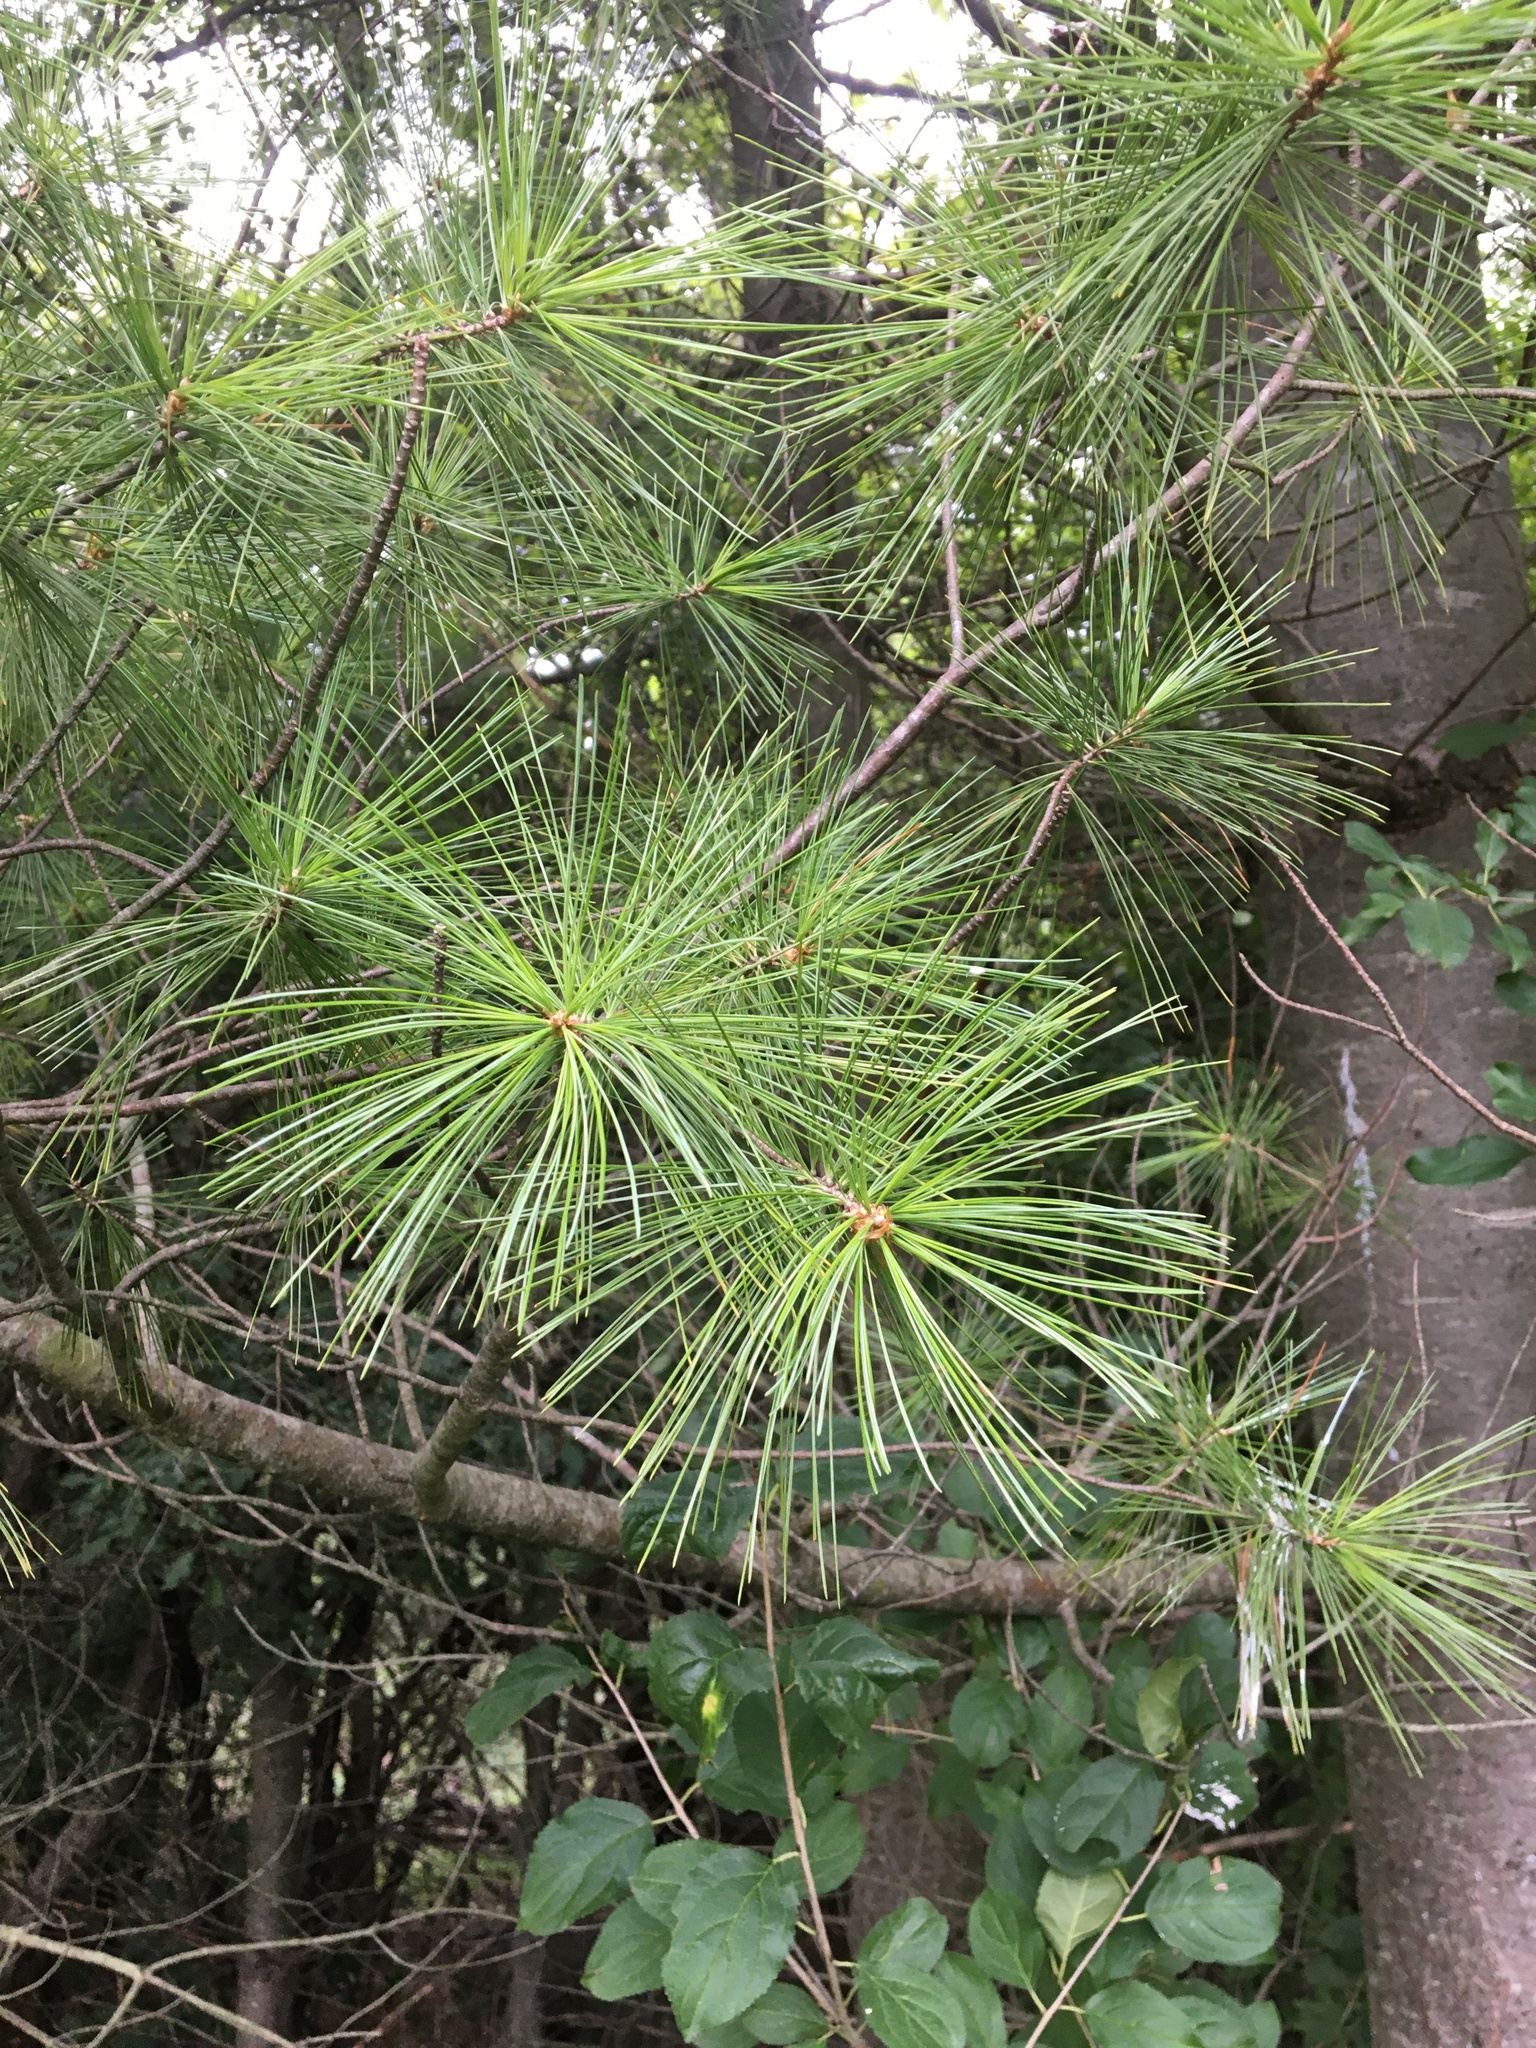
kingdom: Plantae
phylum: Tracheophyta
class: Pinopsida
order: Pinales
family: Pinaceae
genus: Pinus
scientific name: Pinus strobus
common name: Weymouth pine
